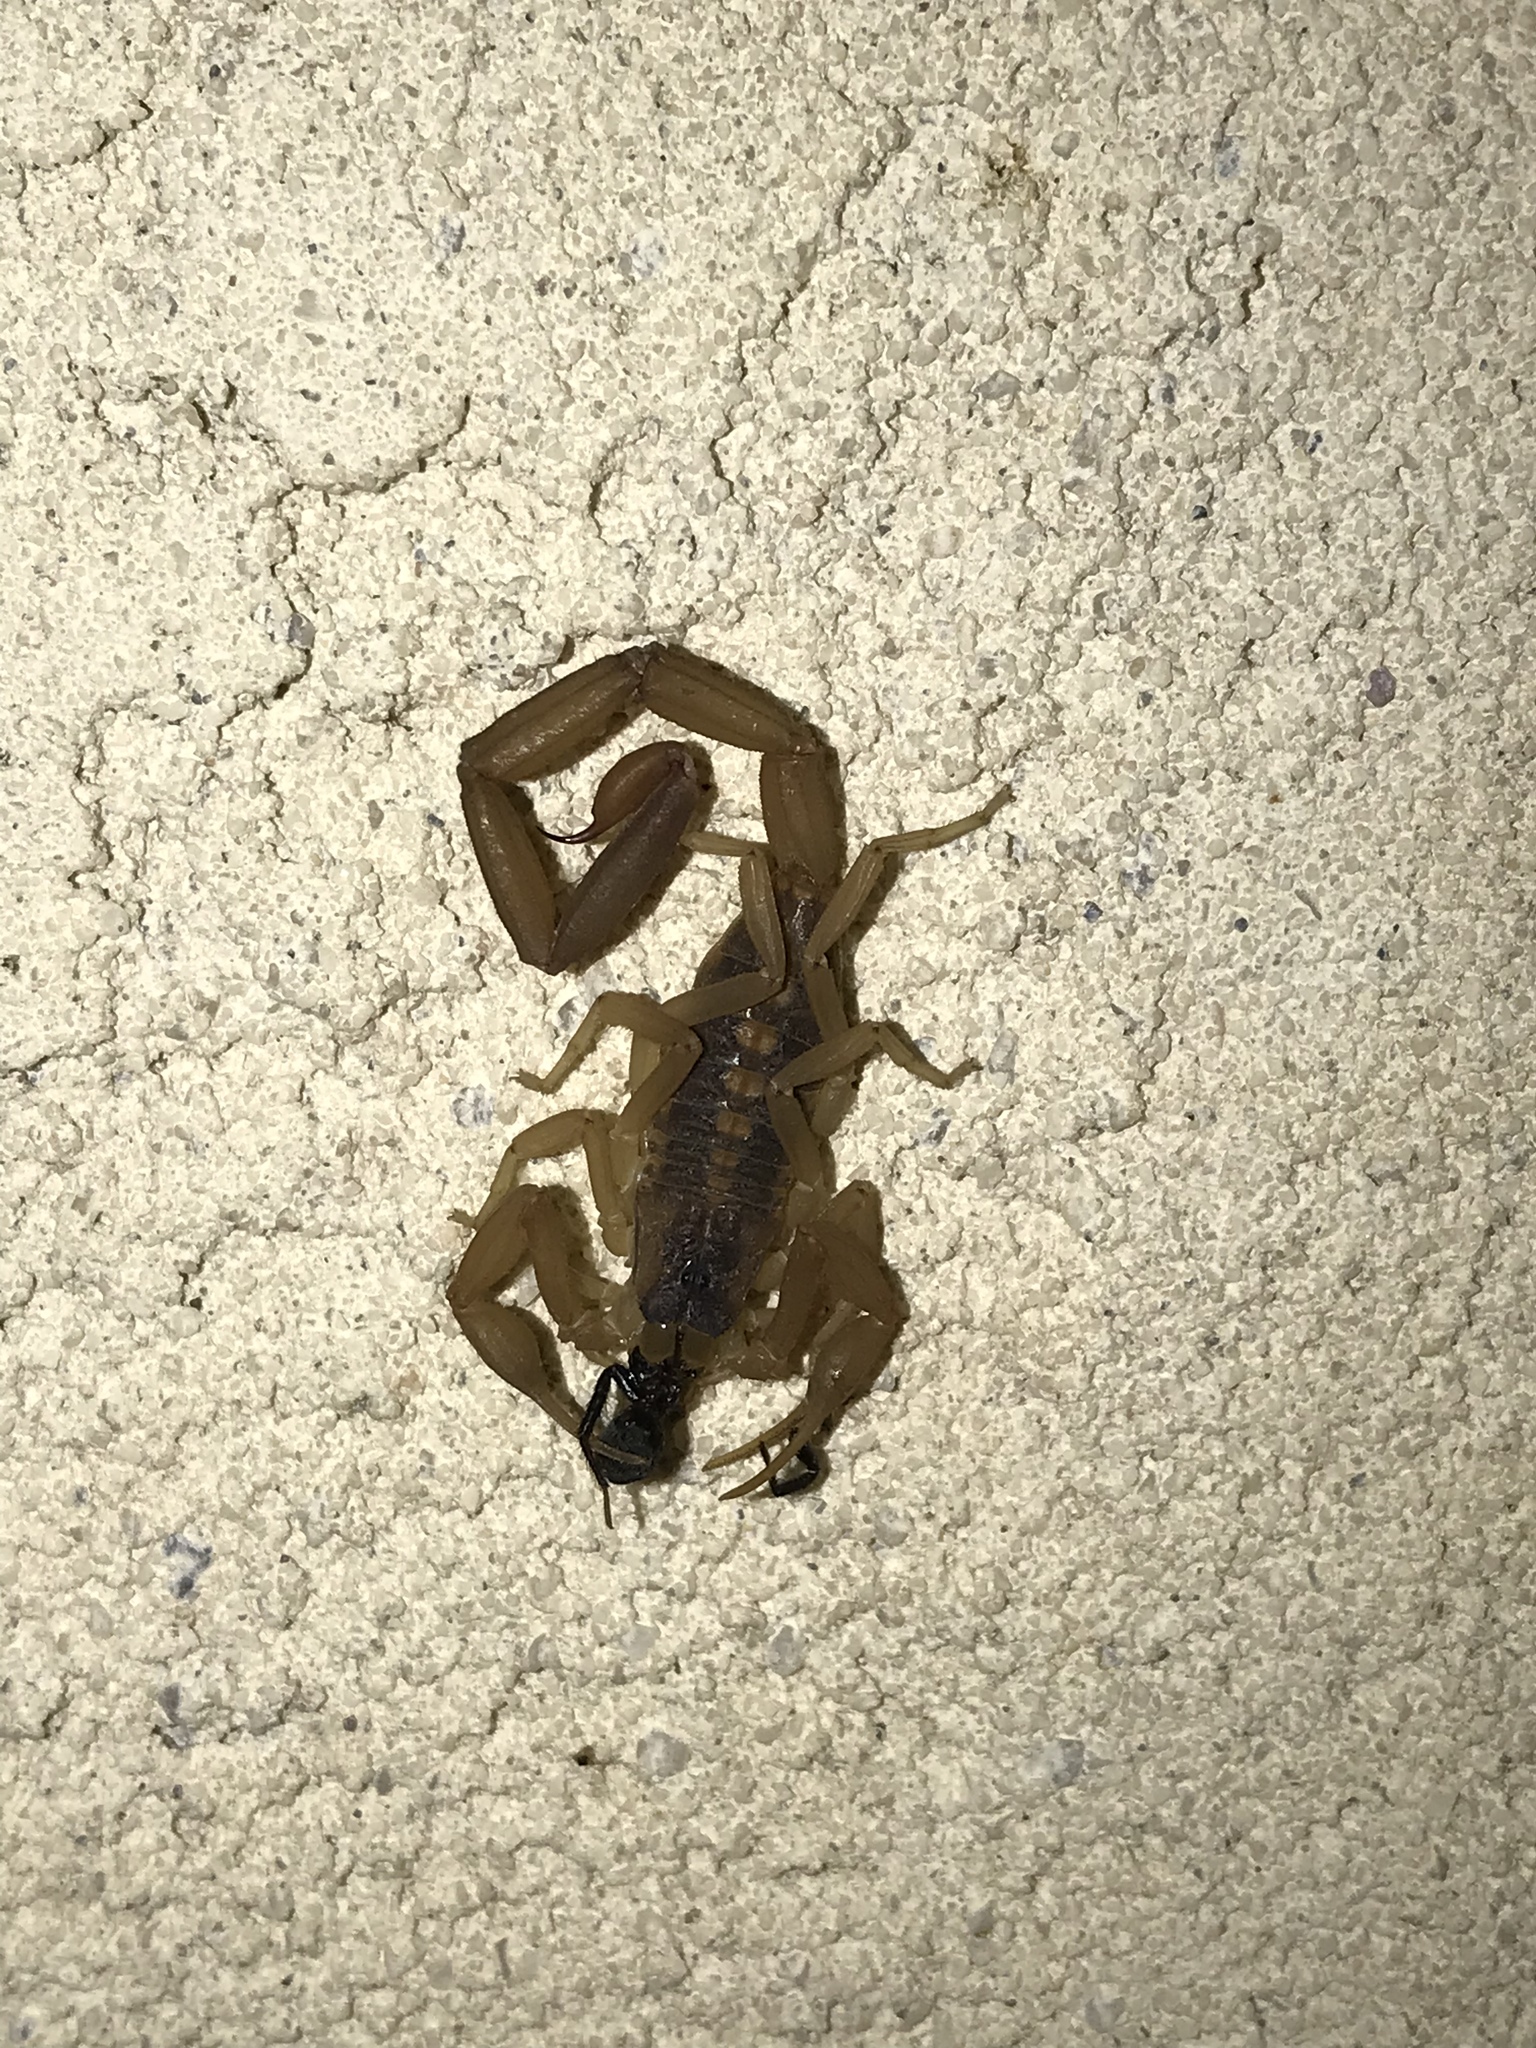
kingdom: Animalia
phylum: Arthropoda
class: Arachnida
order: Scorpiones
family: Buthidae
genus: Centruroides
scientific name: Centruroides vittatus
